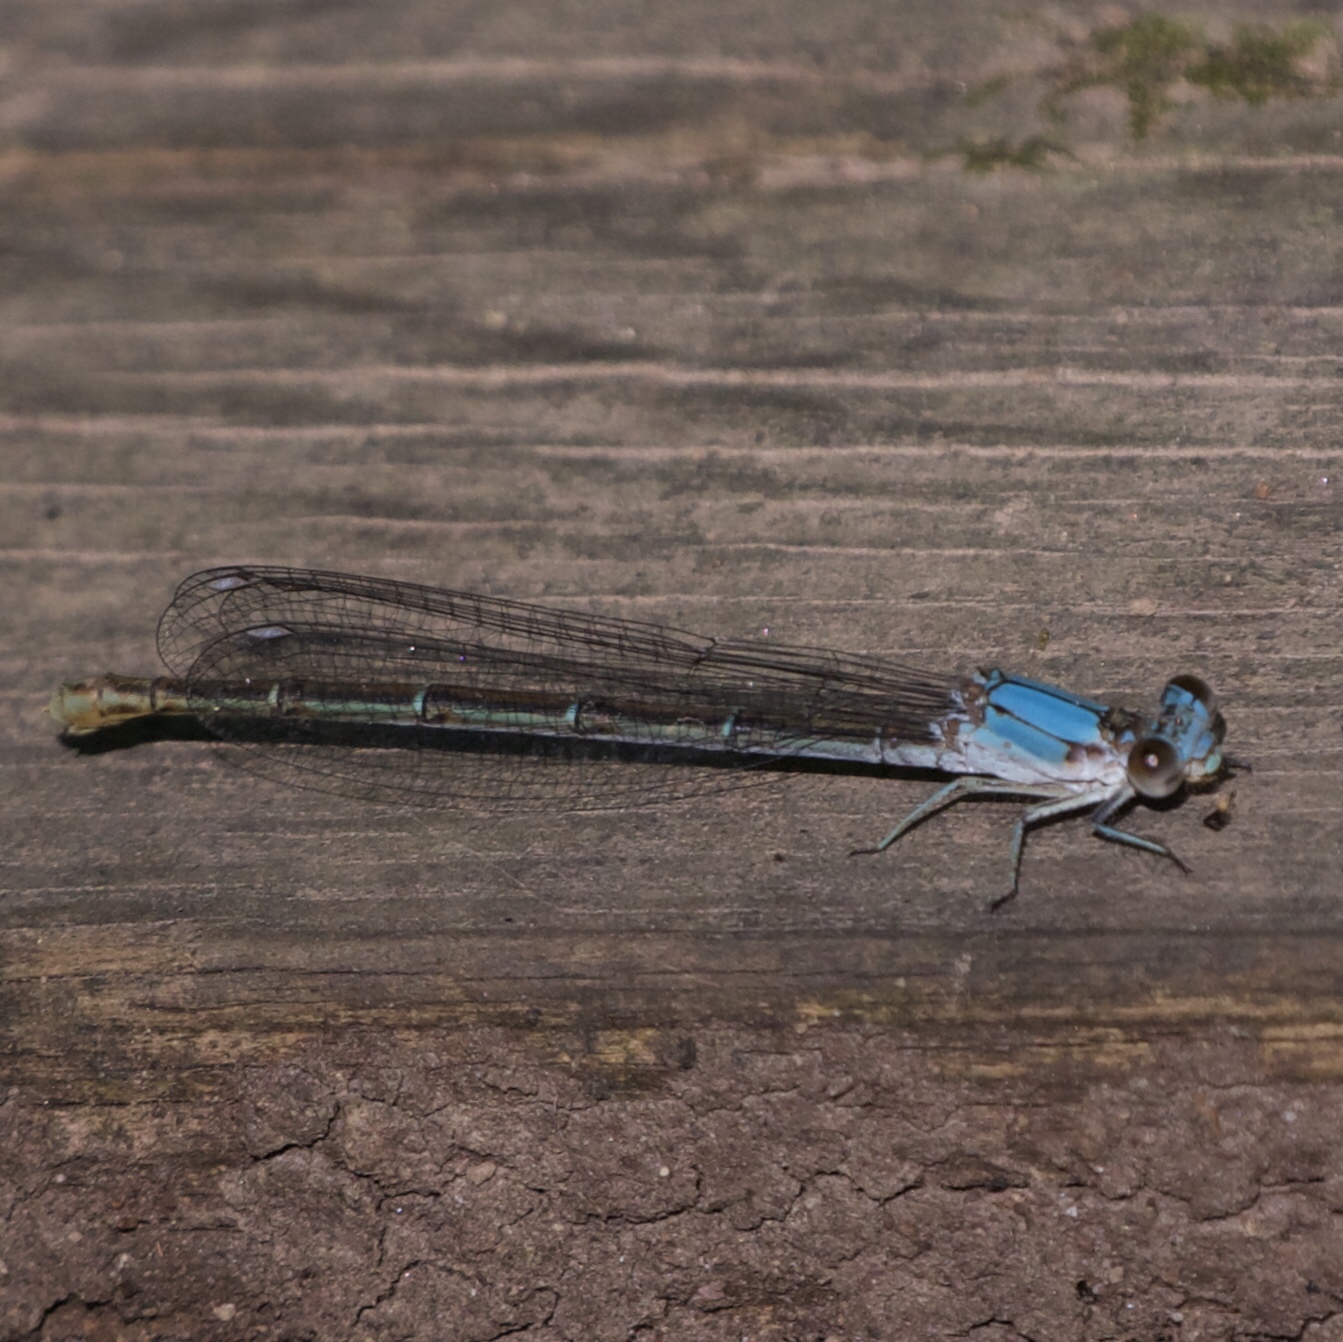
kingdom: Animalia
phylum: Arthropoda
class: Insecta
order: Odonata
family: Coenagrionidae
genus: Argia
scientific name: Argia moesta
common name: Powdered dancer
